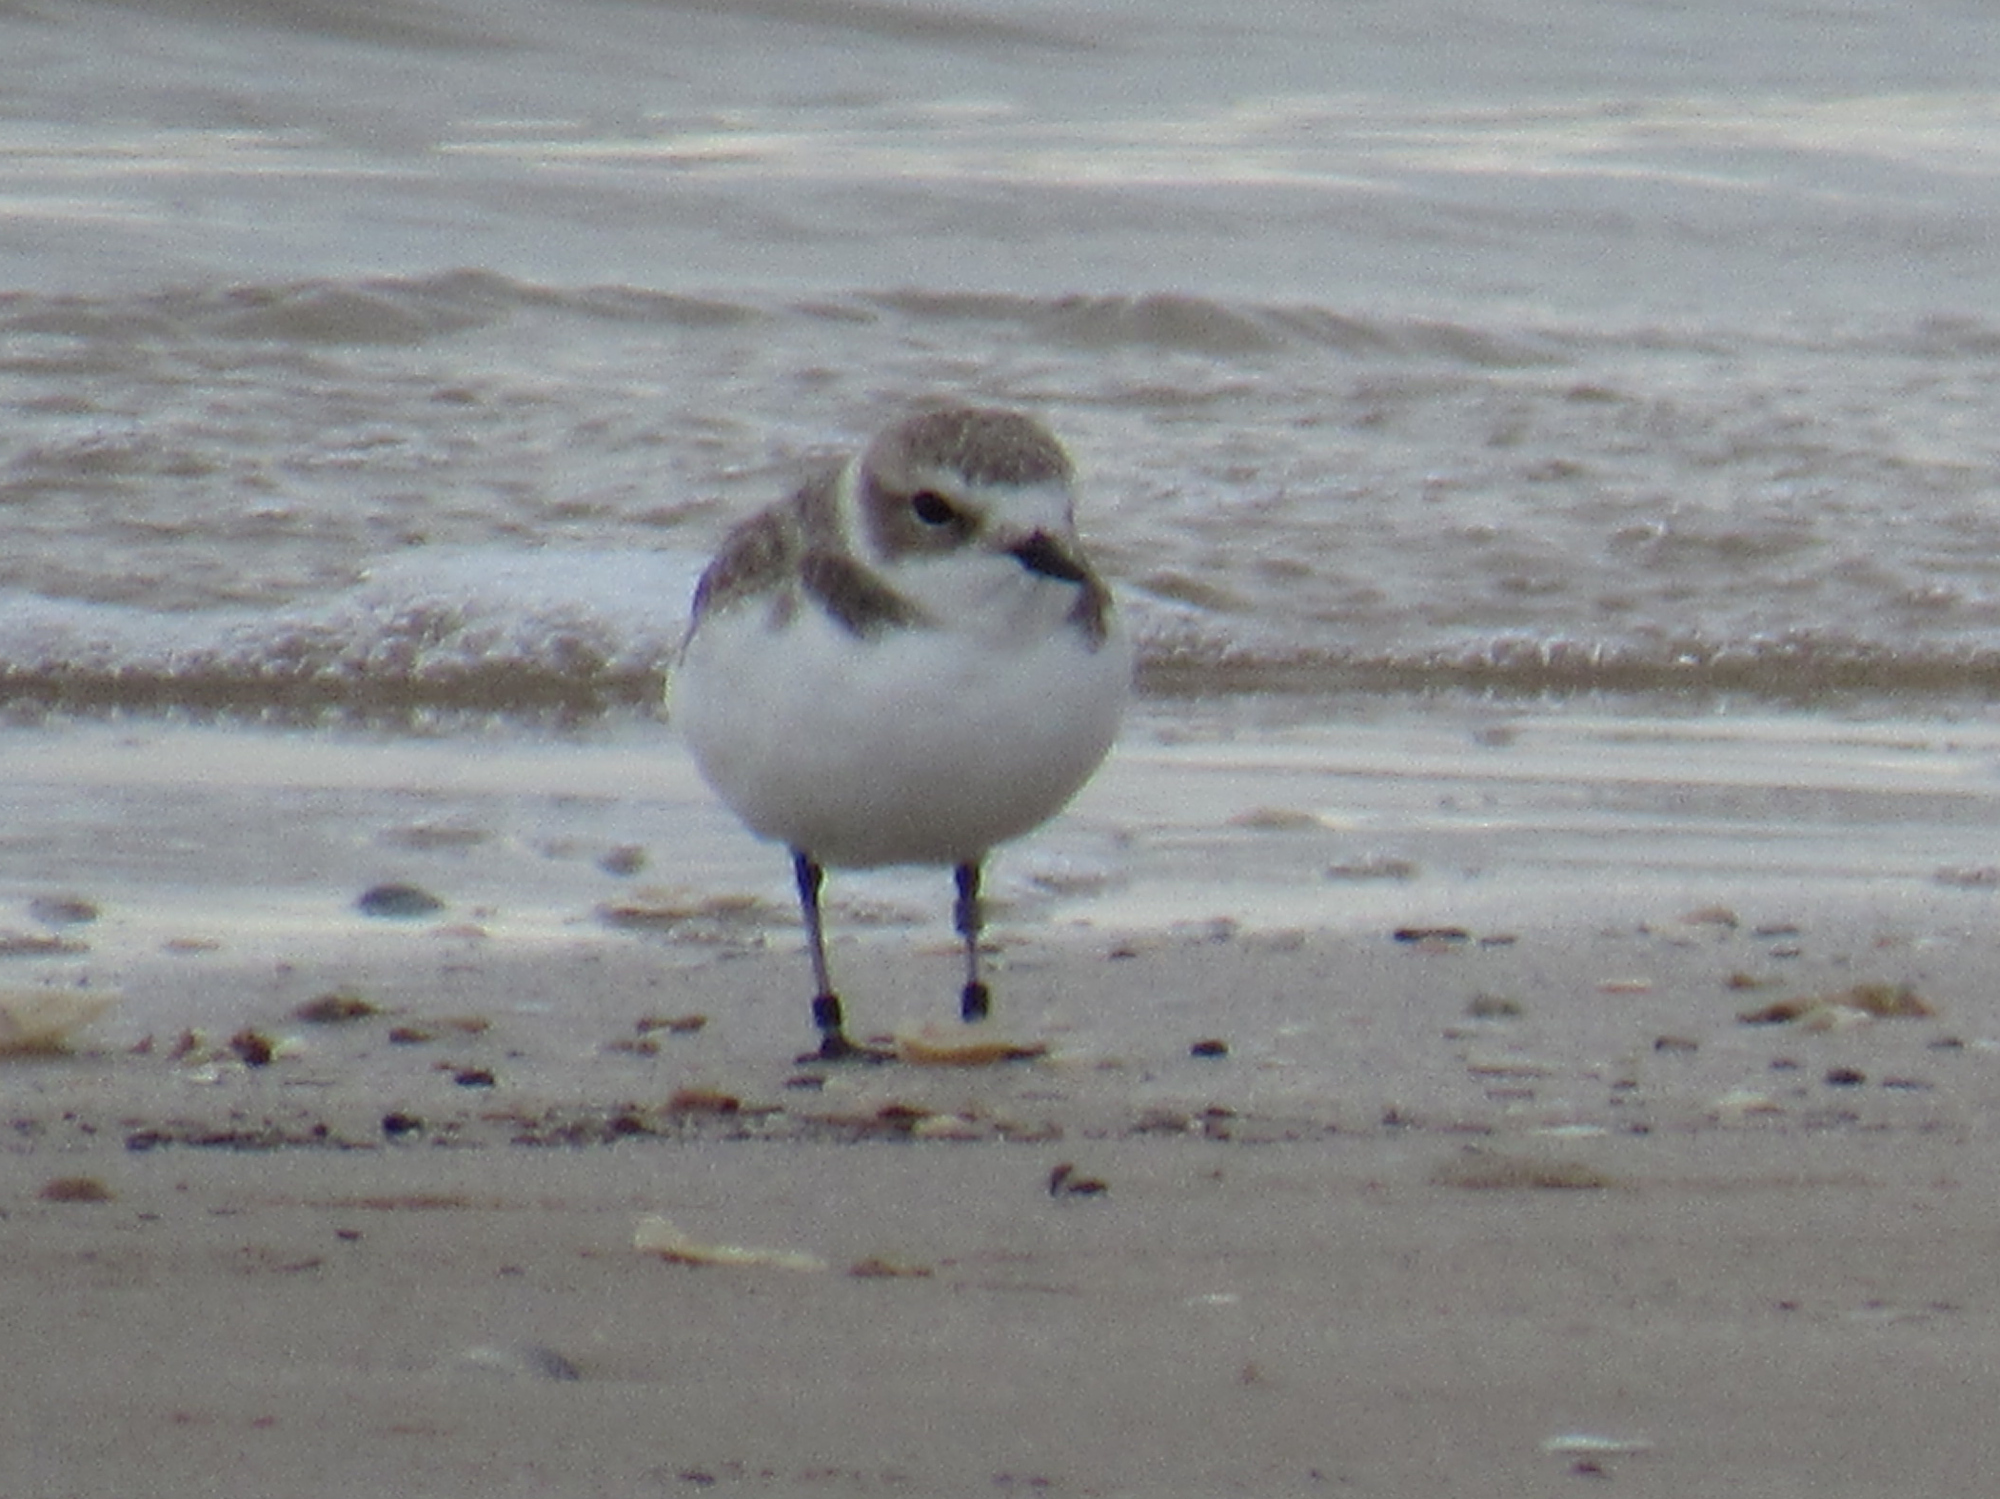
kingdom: Animalia
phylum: Chordata
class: Aves
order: Charadriiformes
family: Charadriidae
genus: Anarhynchus
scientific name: Anarhynchus
